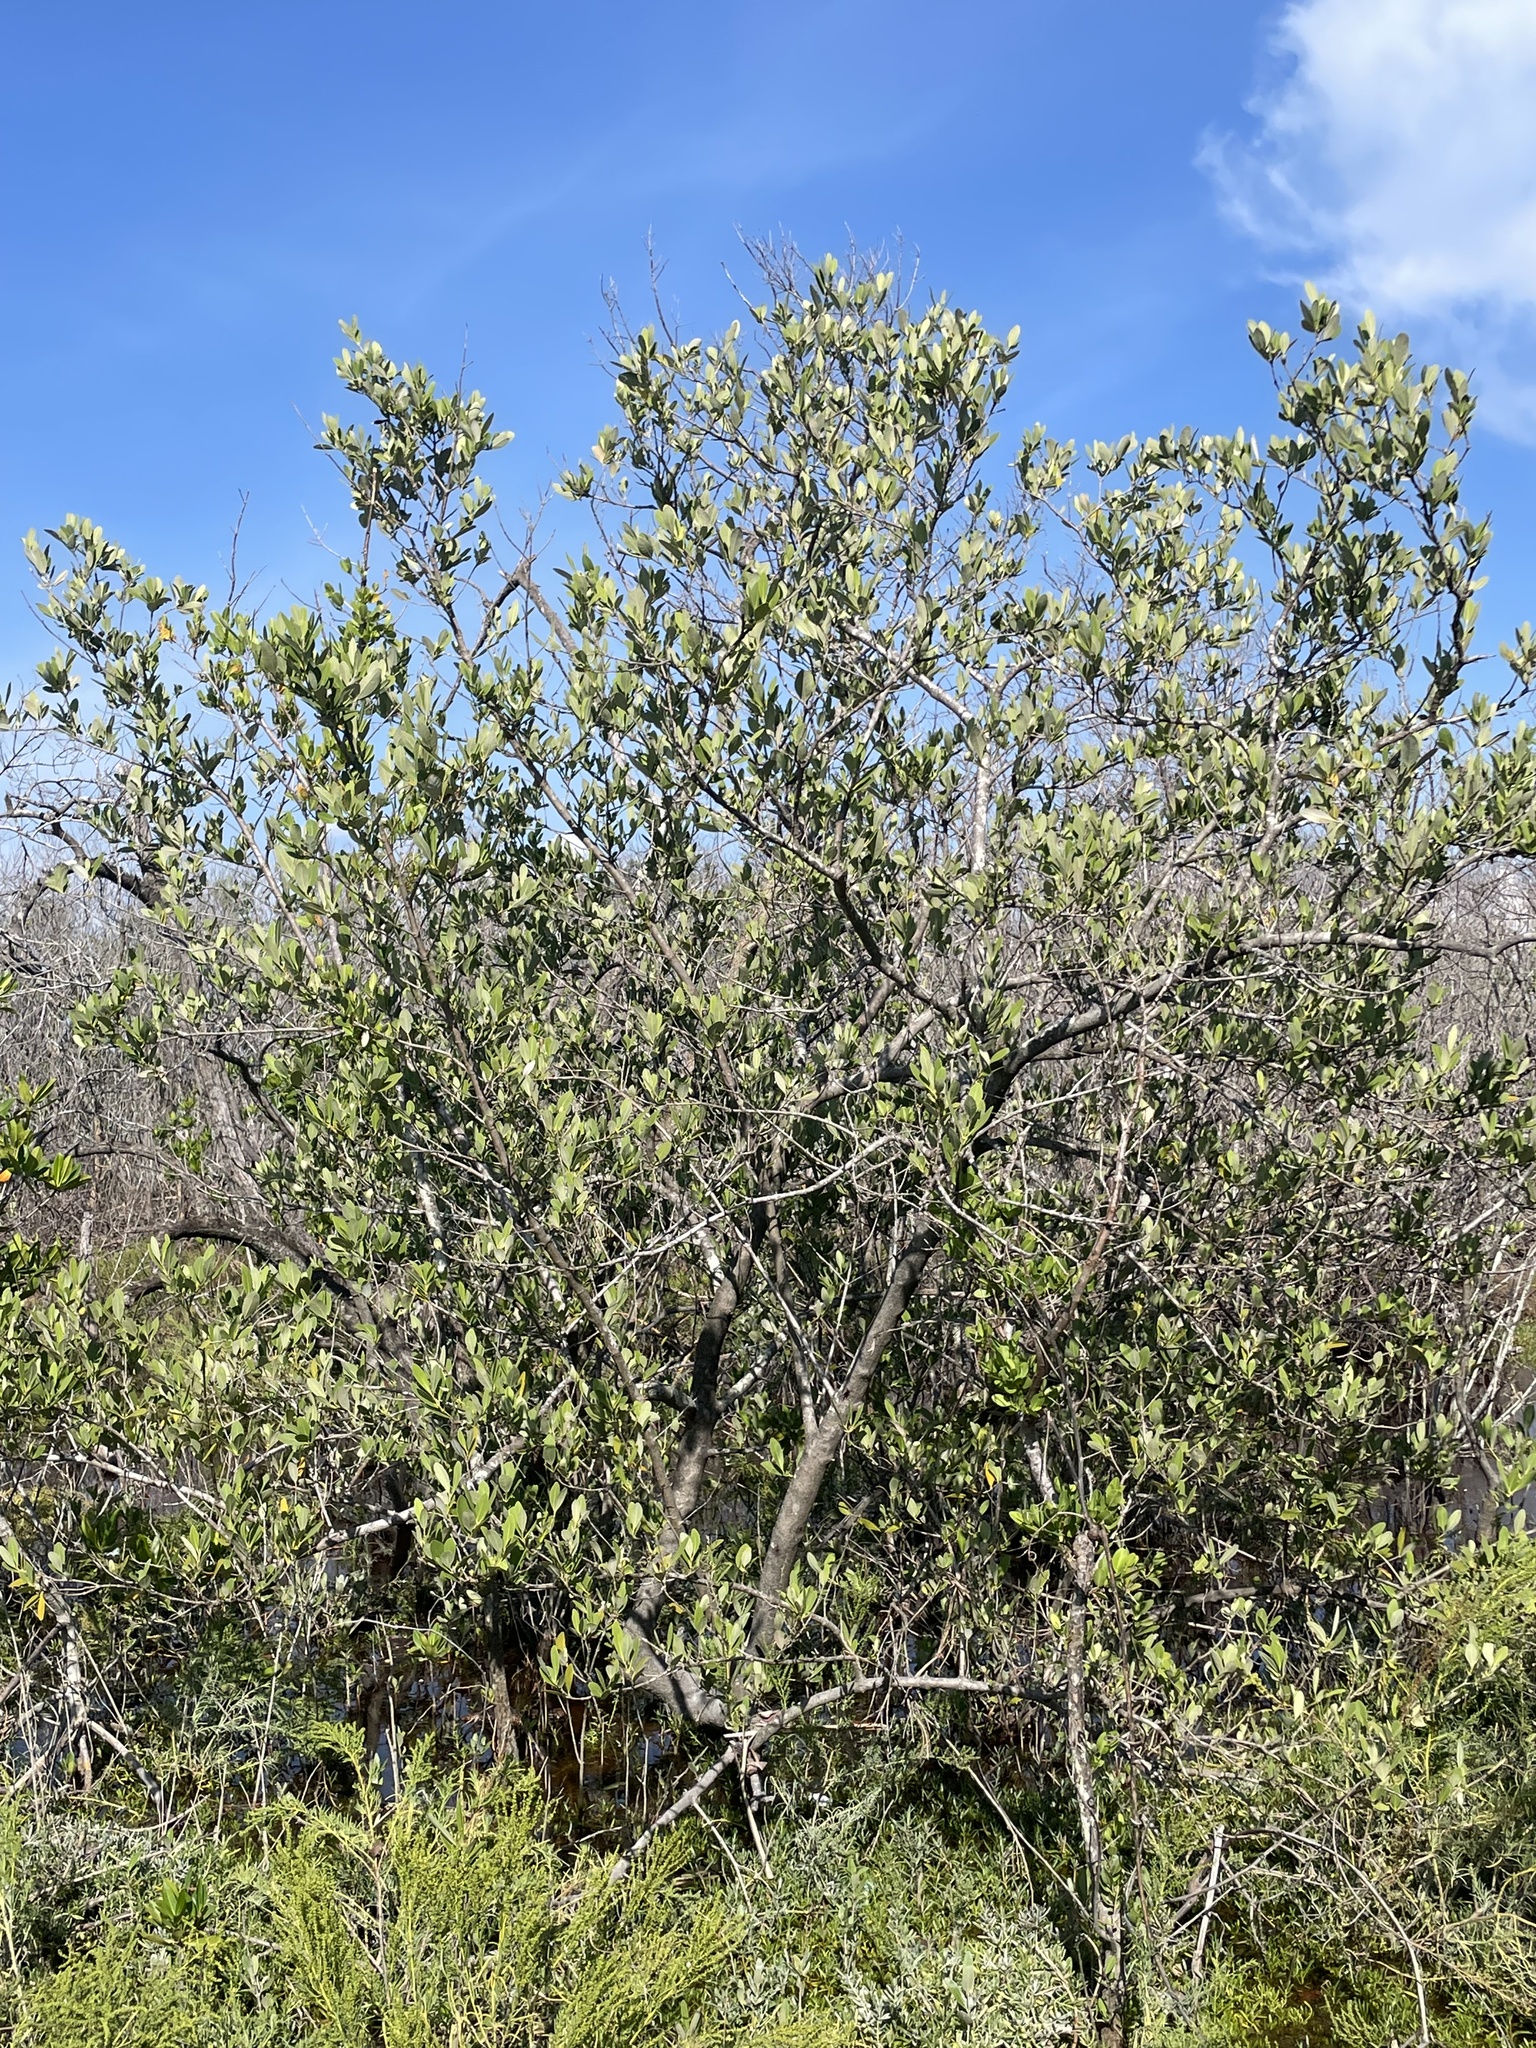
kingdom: Plantae
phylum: Tracheophyta
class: Magnoliopsida
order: Lamiales
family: Acanthaceae
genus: Avicennia
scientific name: Avicennia germinans
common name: Black mangrove
